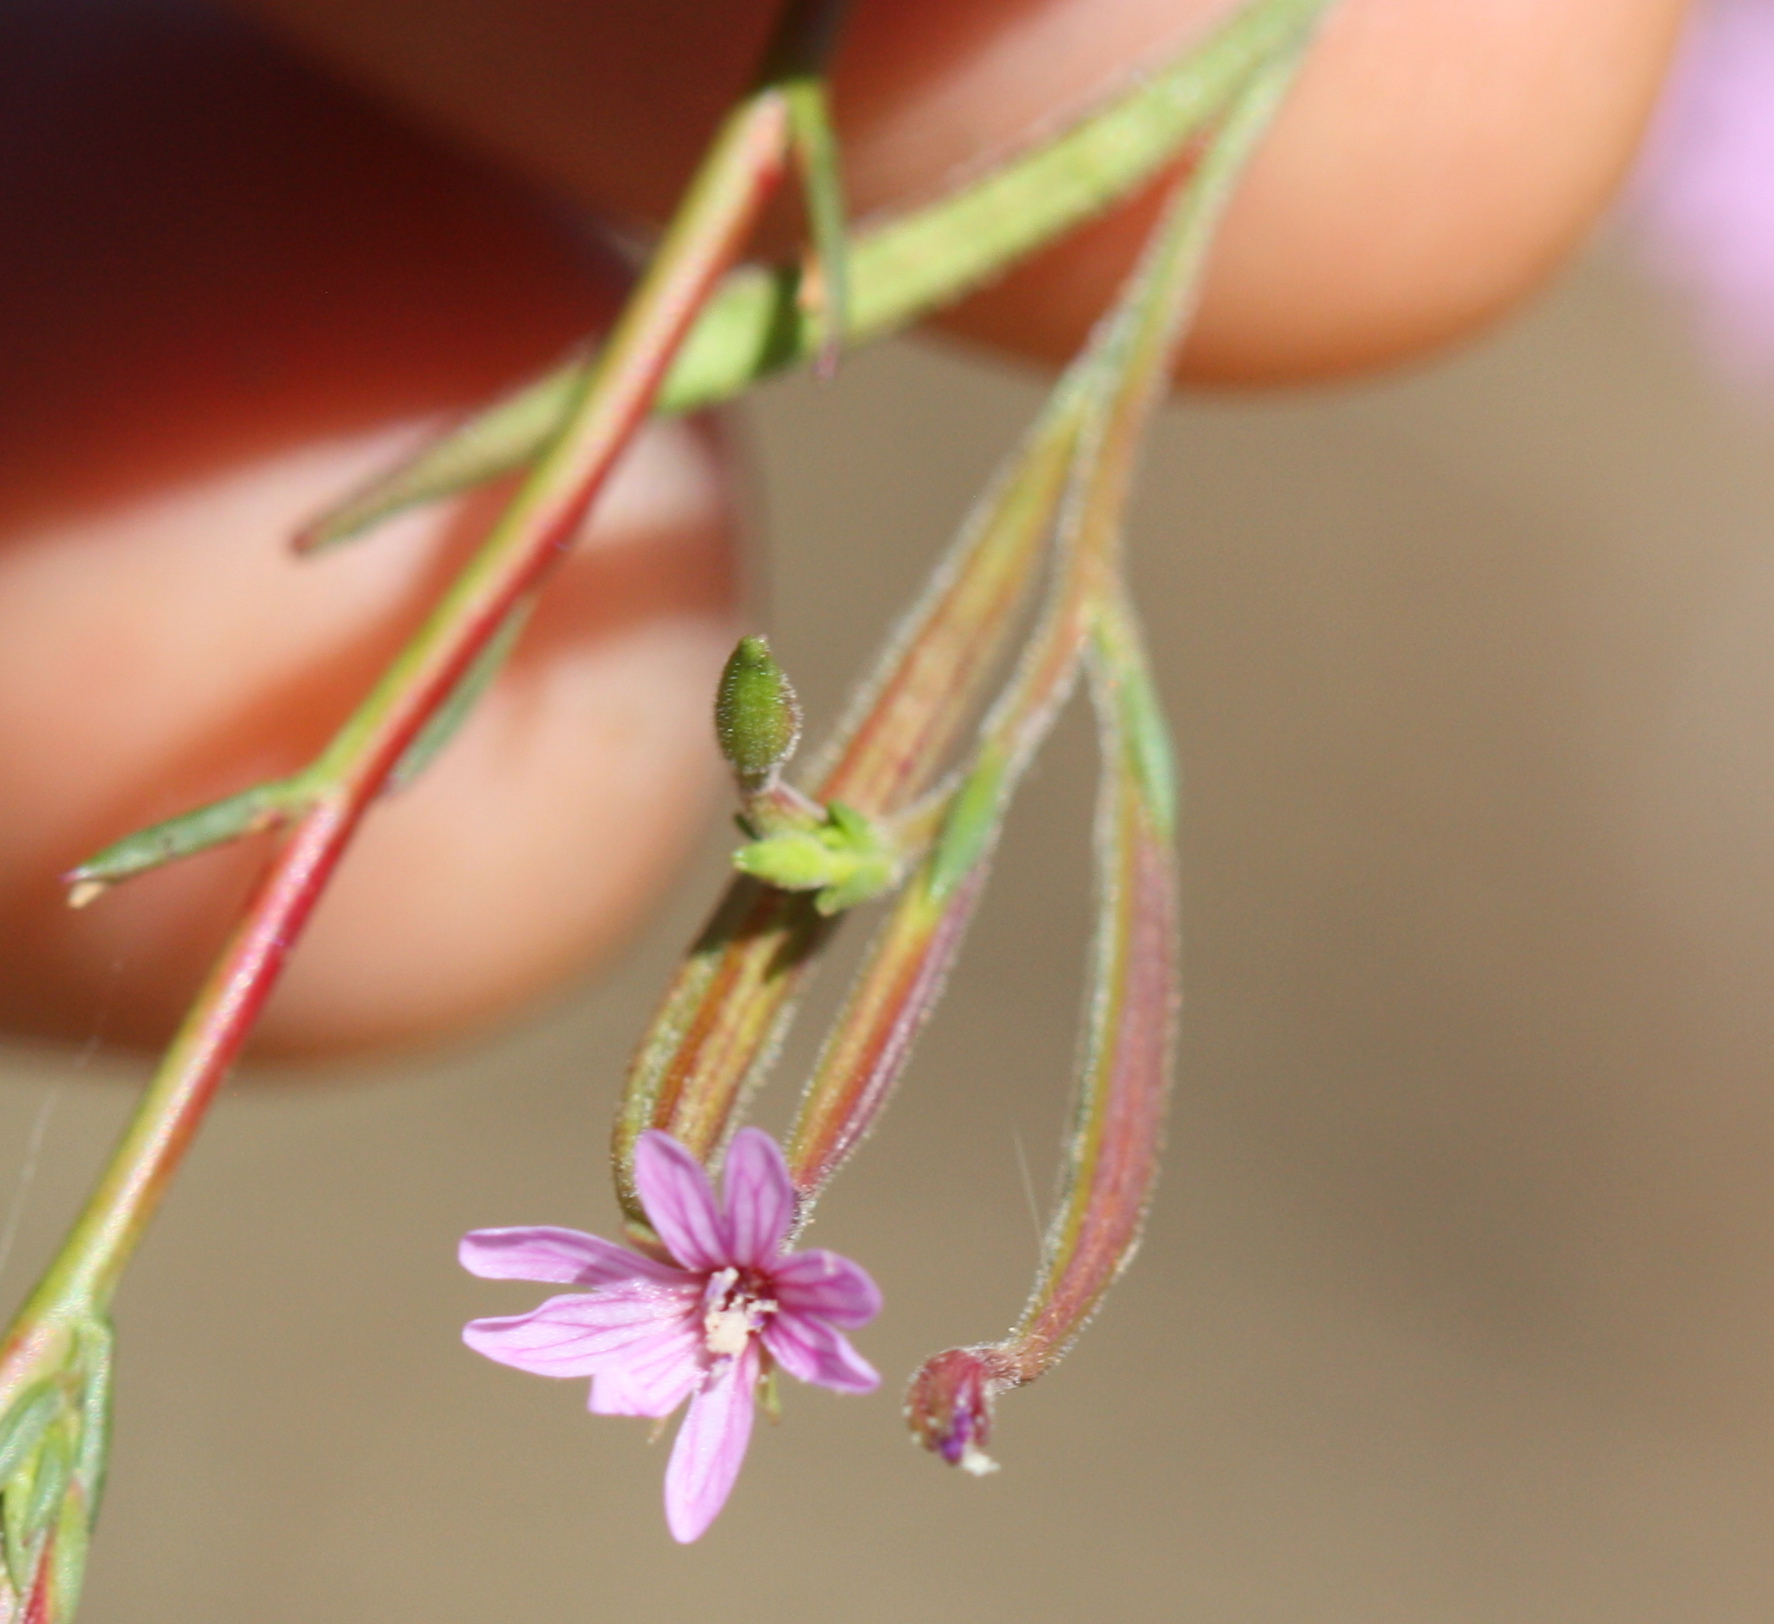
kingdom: Plantae
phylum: Tracheophyta
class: Magnoliopsida
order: Myrtales
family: Onagraceae
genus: Epilobium
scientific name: Epilobium brachycarpum
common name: Annual willowherb
